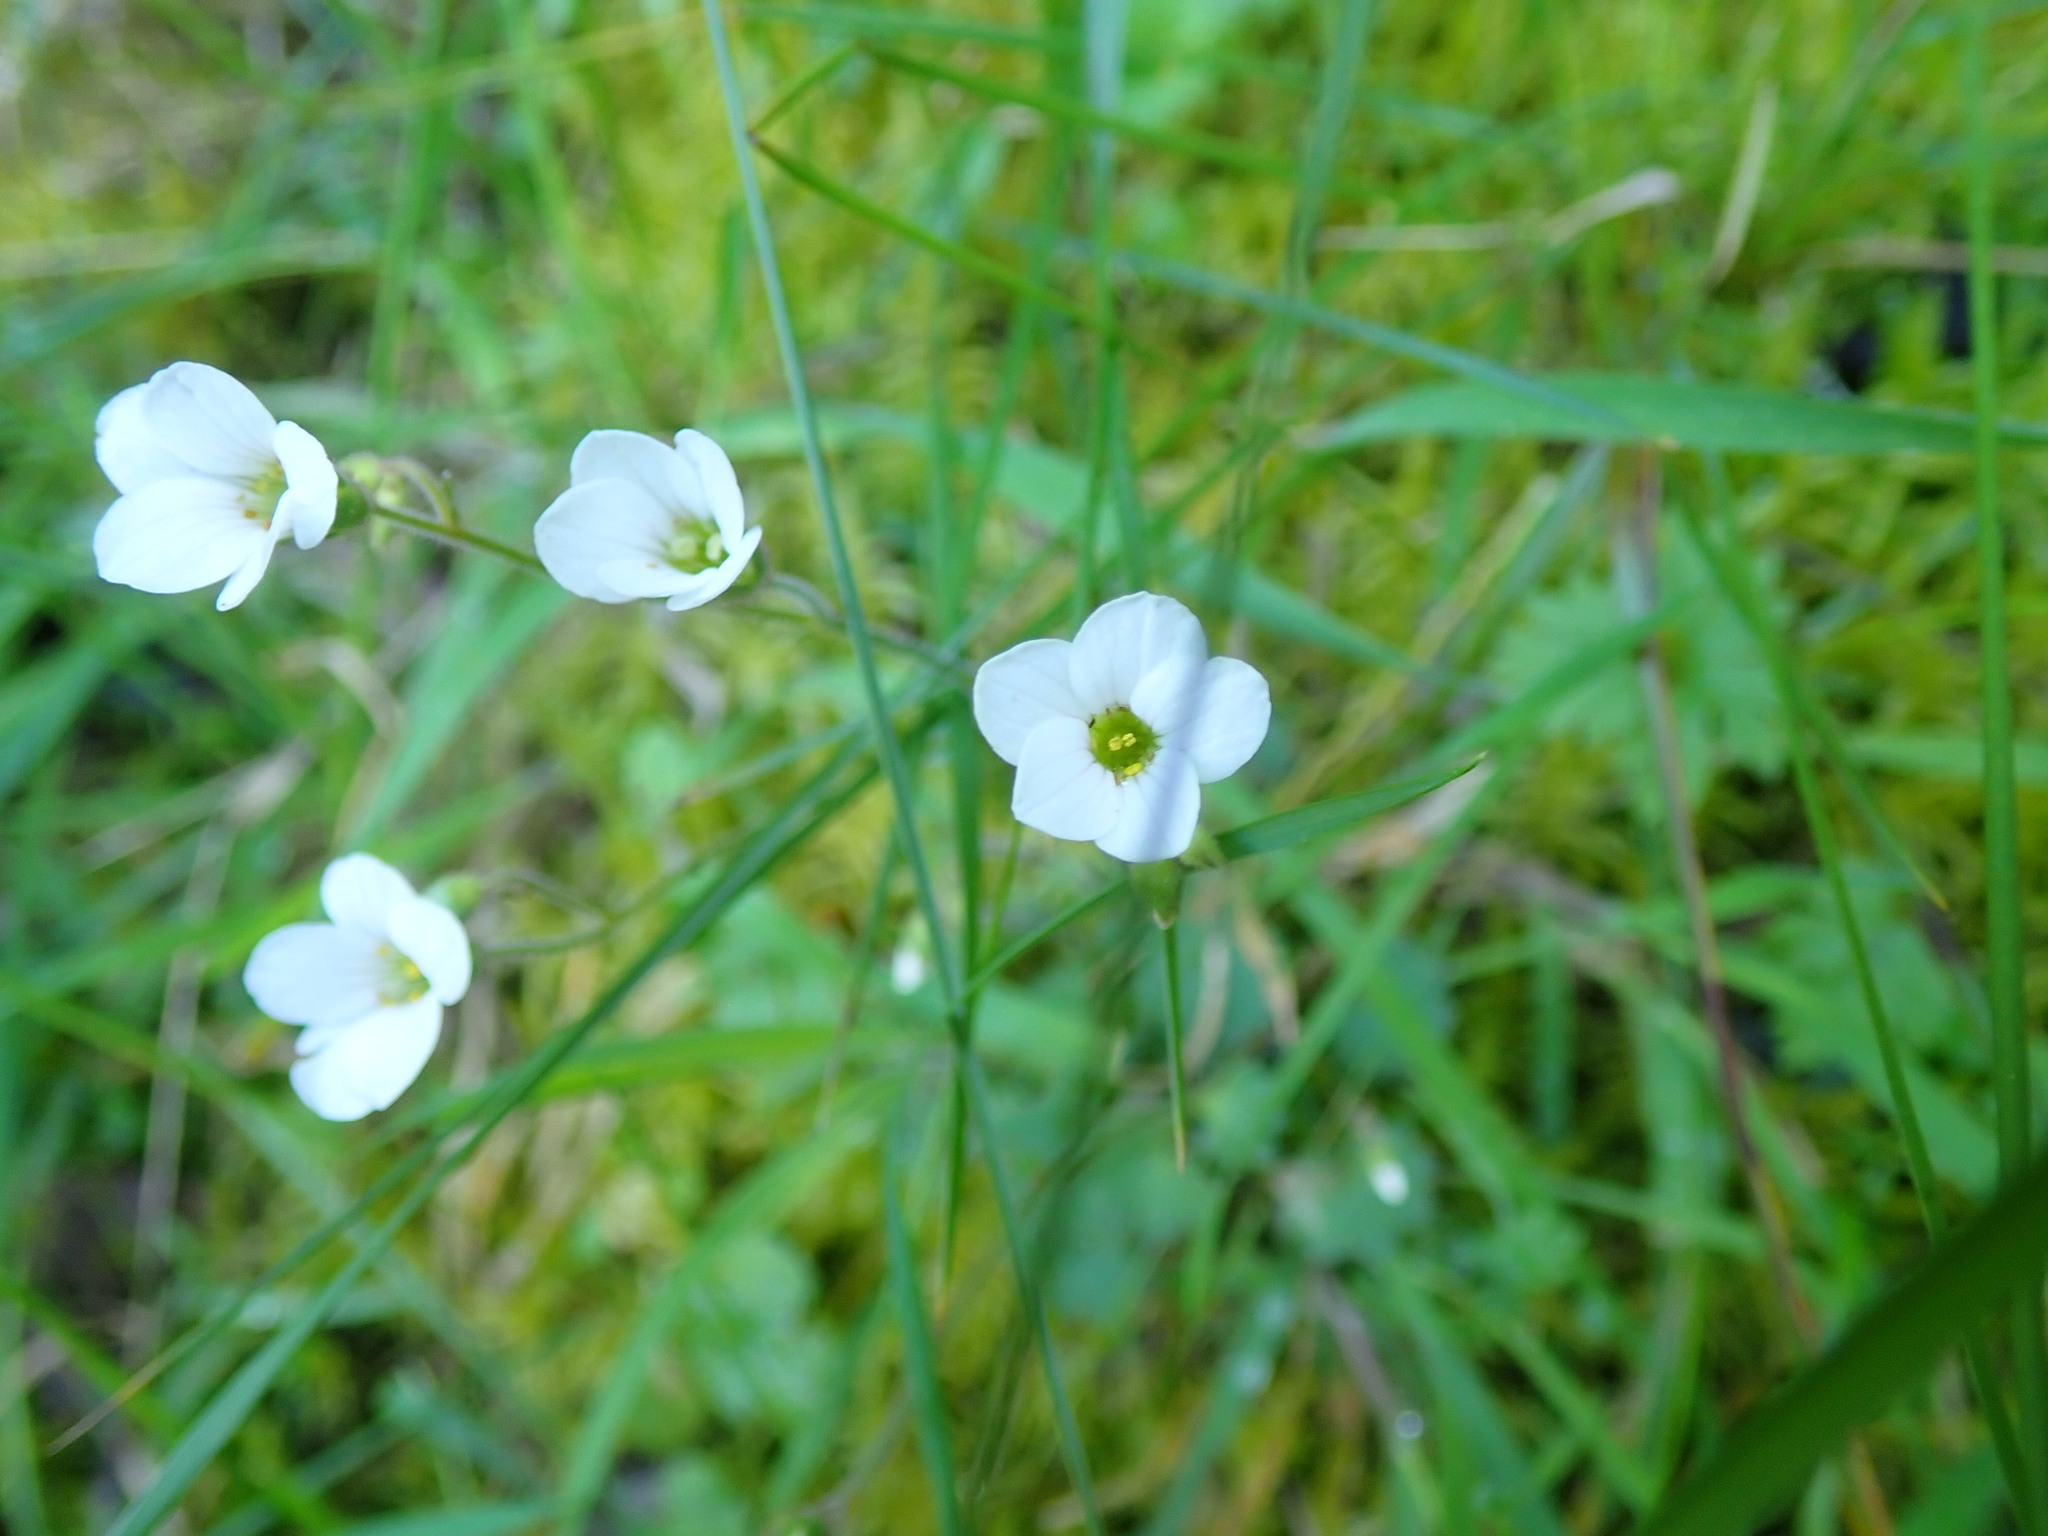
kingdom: Plantae
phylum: Tracheophyta
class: Magnoliopsida
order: Saxifragales
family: Saxifragaceae
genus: Saxifraga
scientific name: Saxifraga granulata
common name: Meadow saxifrage
